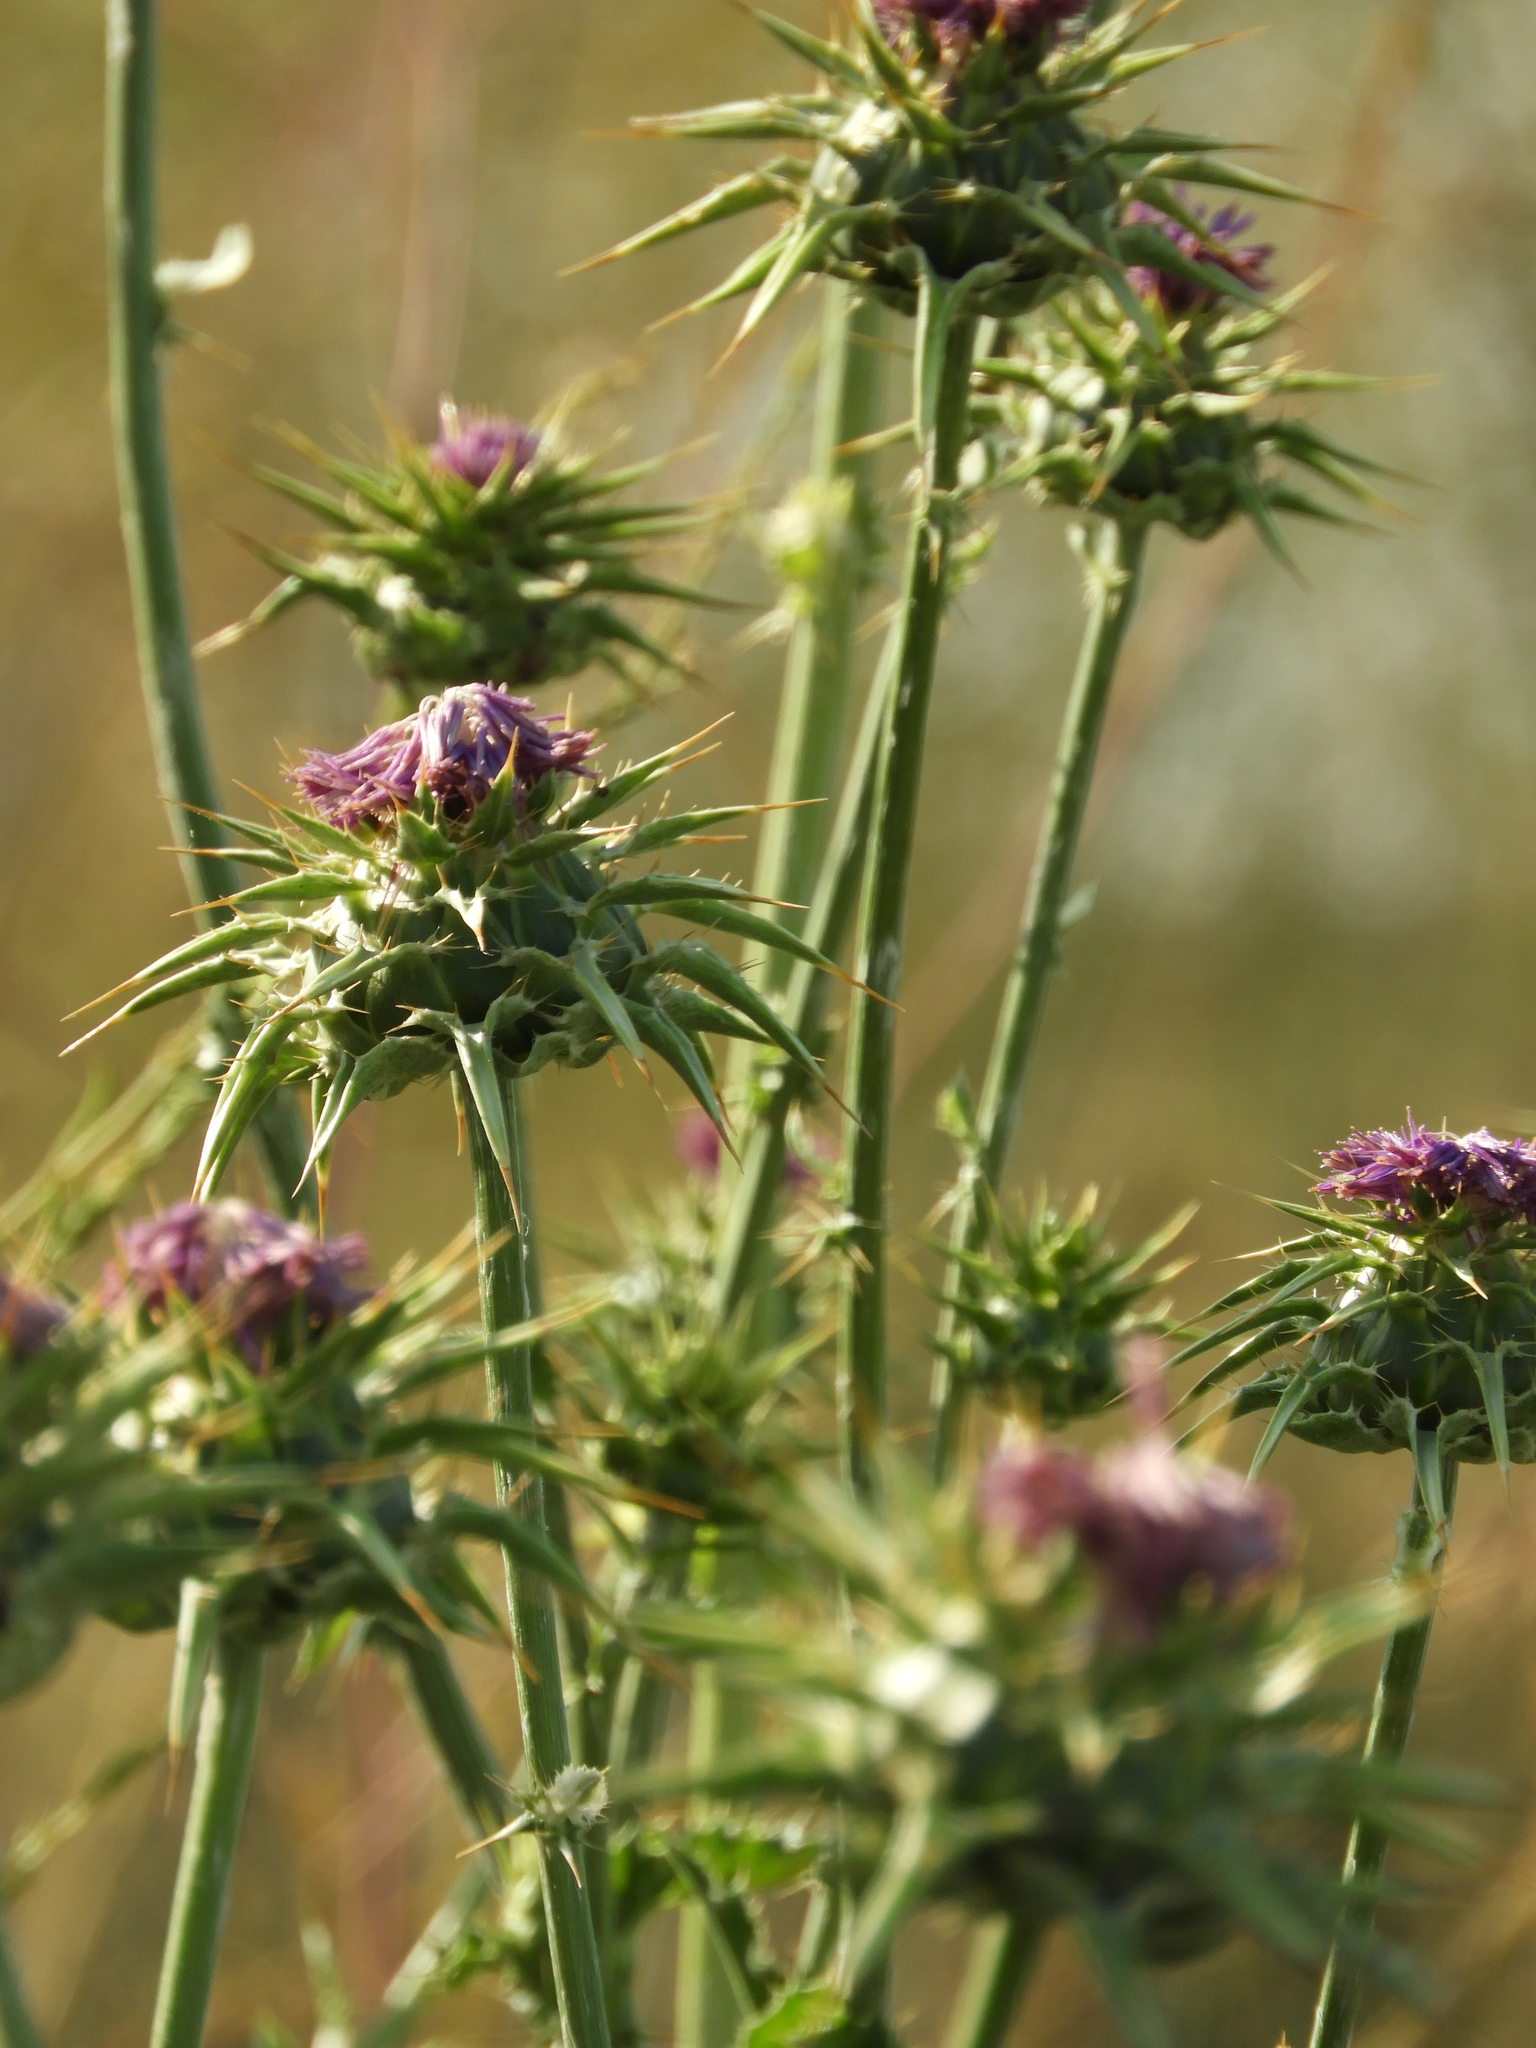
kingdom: Plantae
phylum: Tracheophyta
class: Magnoliopsida
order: Asterales
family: Asteraceae
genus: Silybum
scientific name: Silybum marianum
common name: Milk thistle
